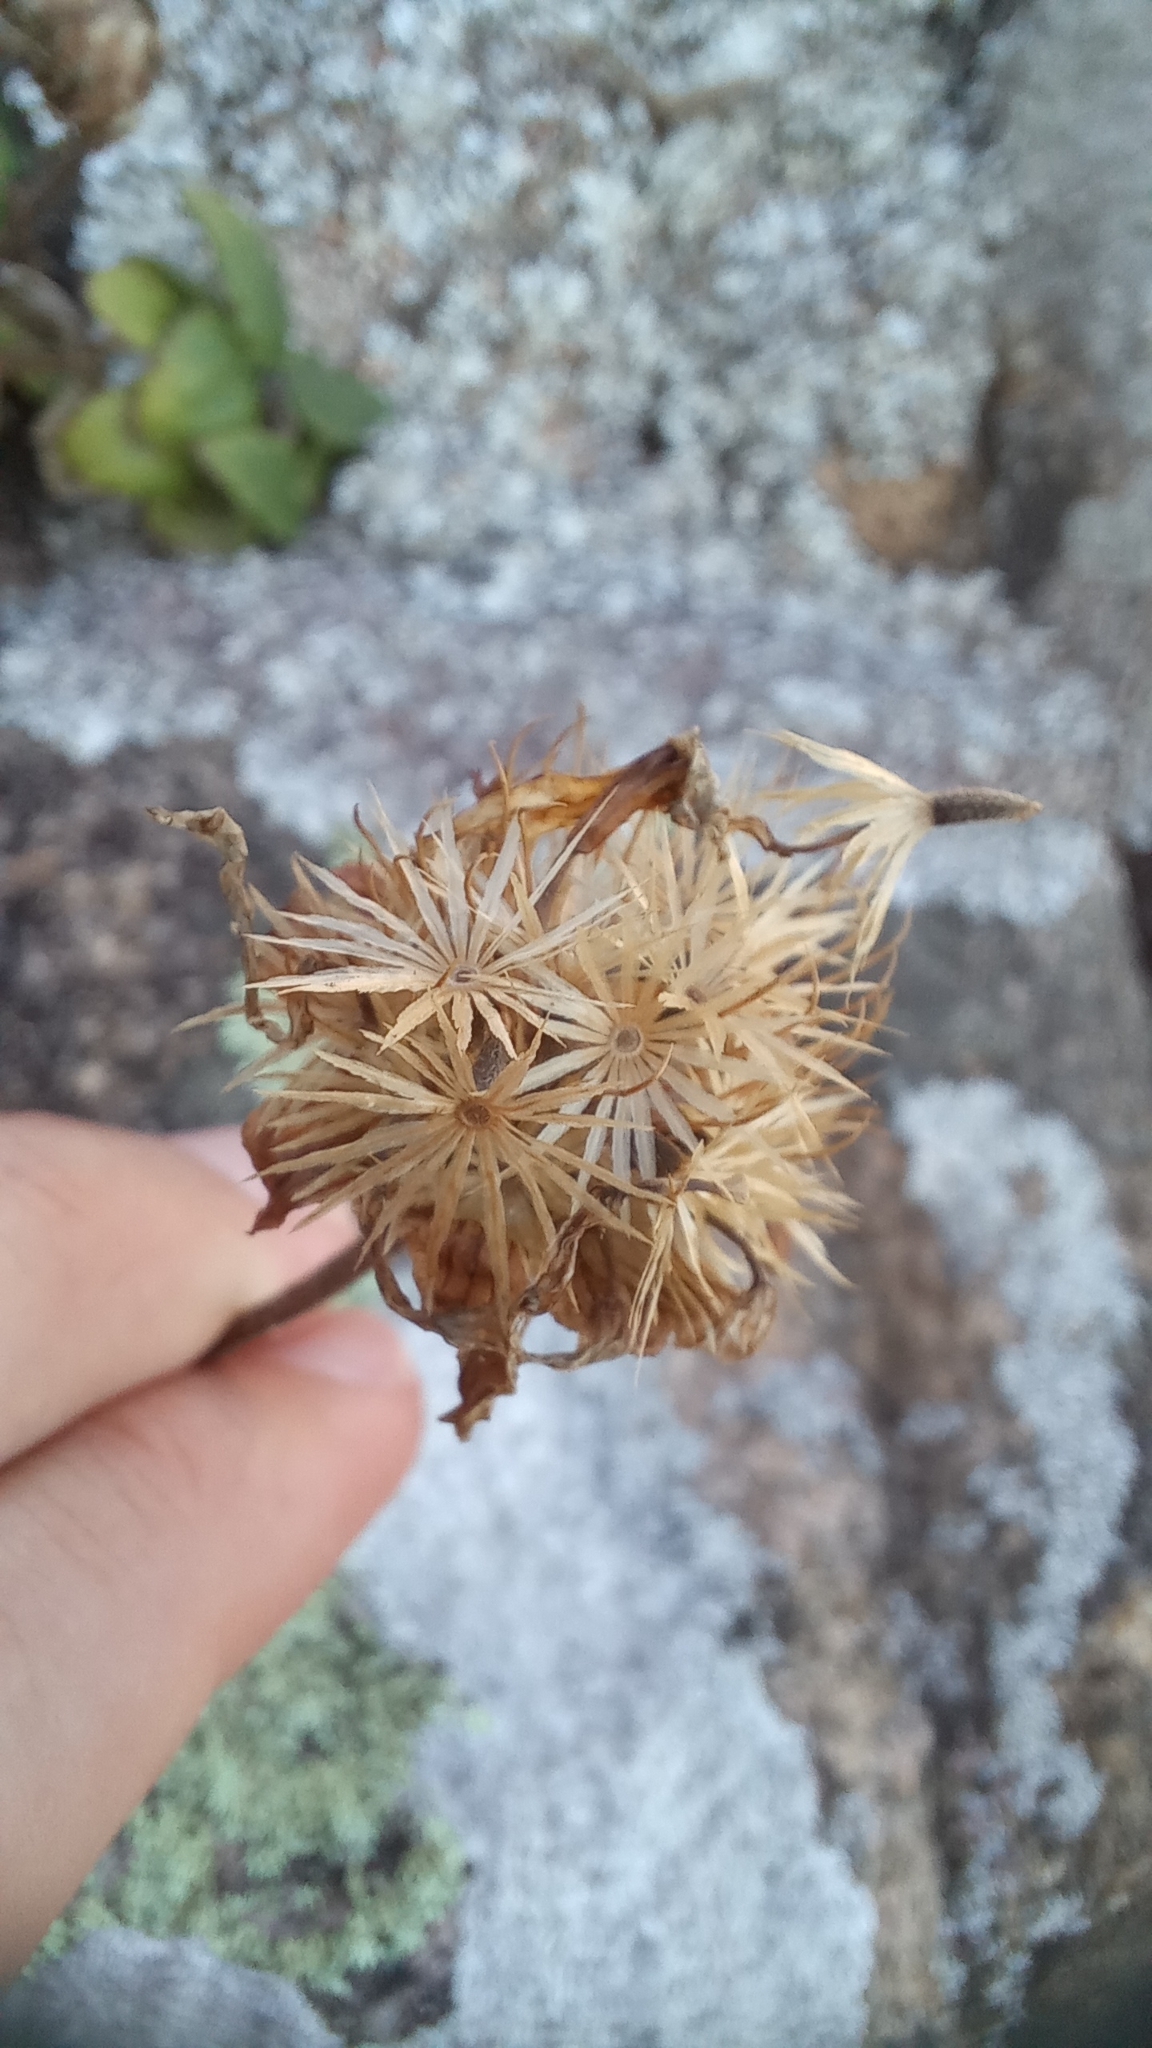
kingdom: Plantae
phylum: Tracheophyta
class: Magnoliopsida
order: Asterales
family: Asteraceae
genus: Calea
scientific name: Calea uniflora
